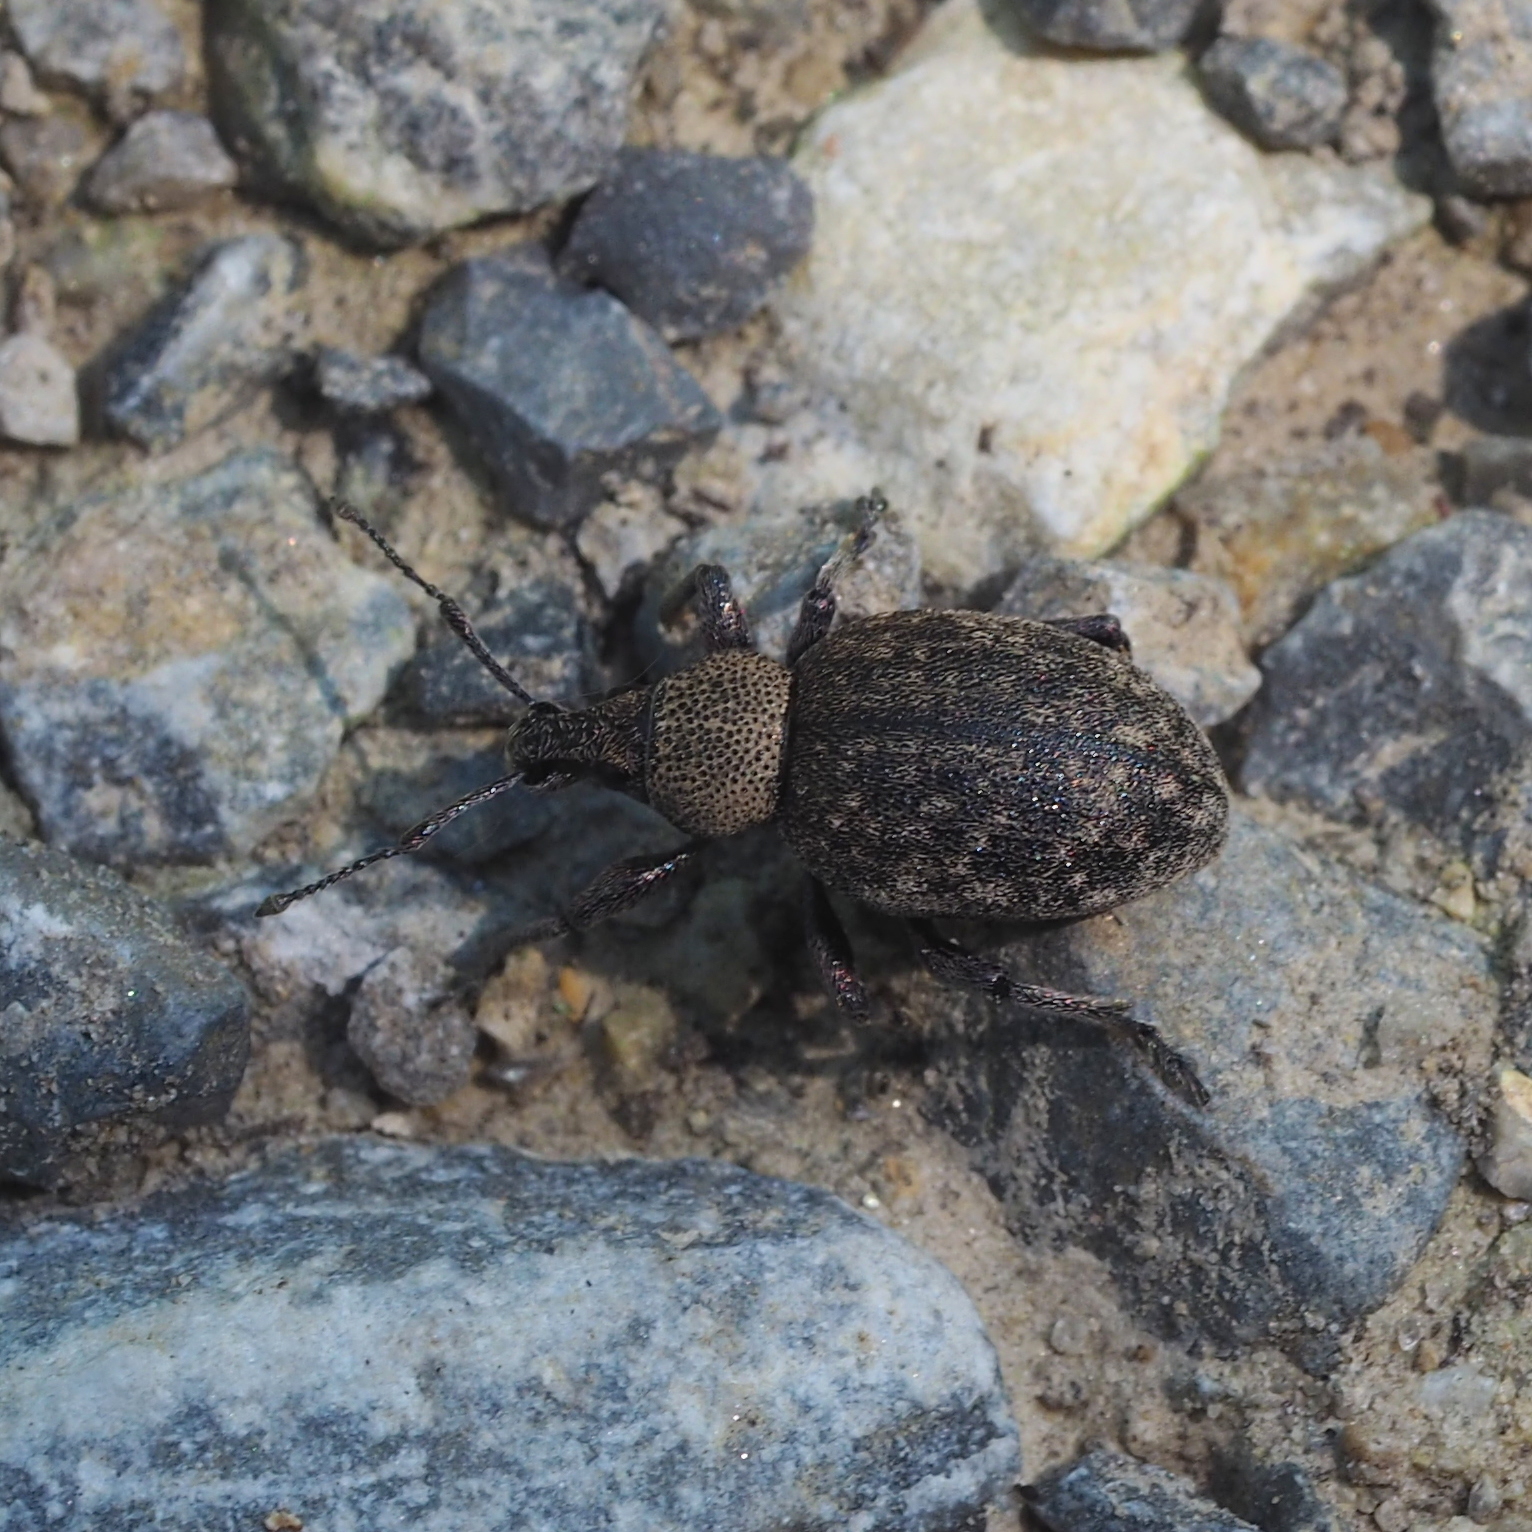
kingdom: Animalia
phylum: Arthropoda
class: Insecta
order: Coleoptera
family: Curculionidae
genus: Otiorhynchus
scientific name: Otiorhynchus ligustici
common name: Weevil
